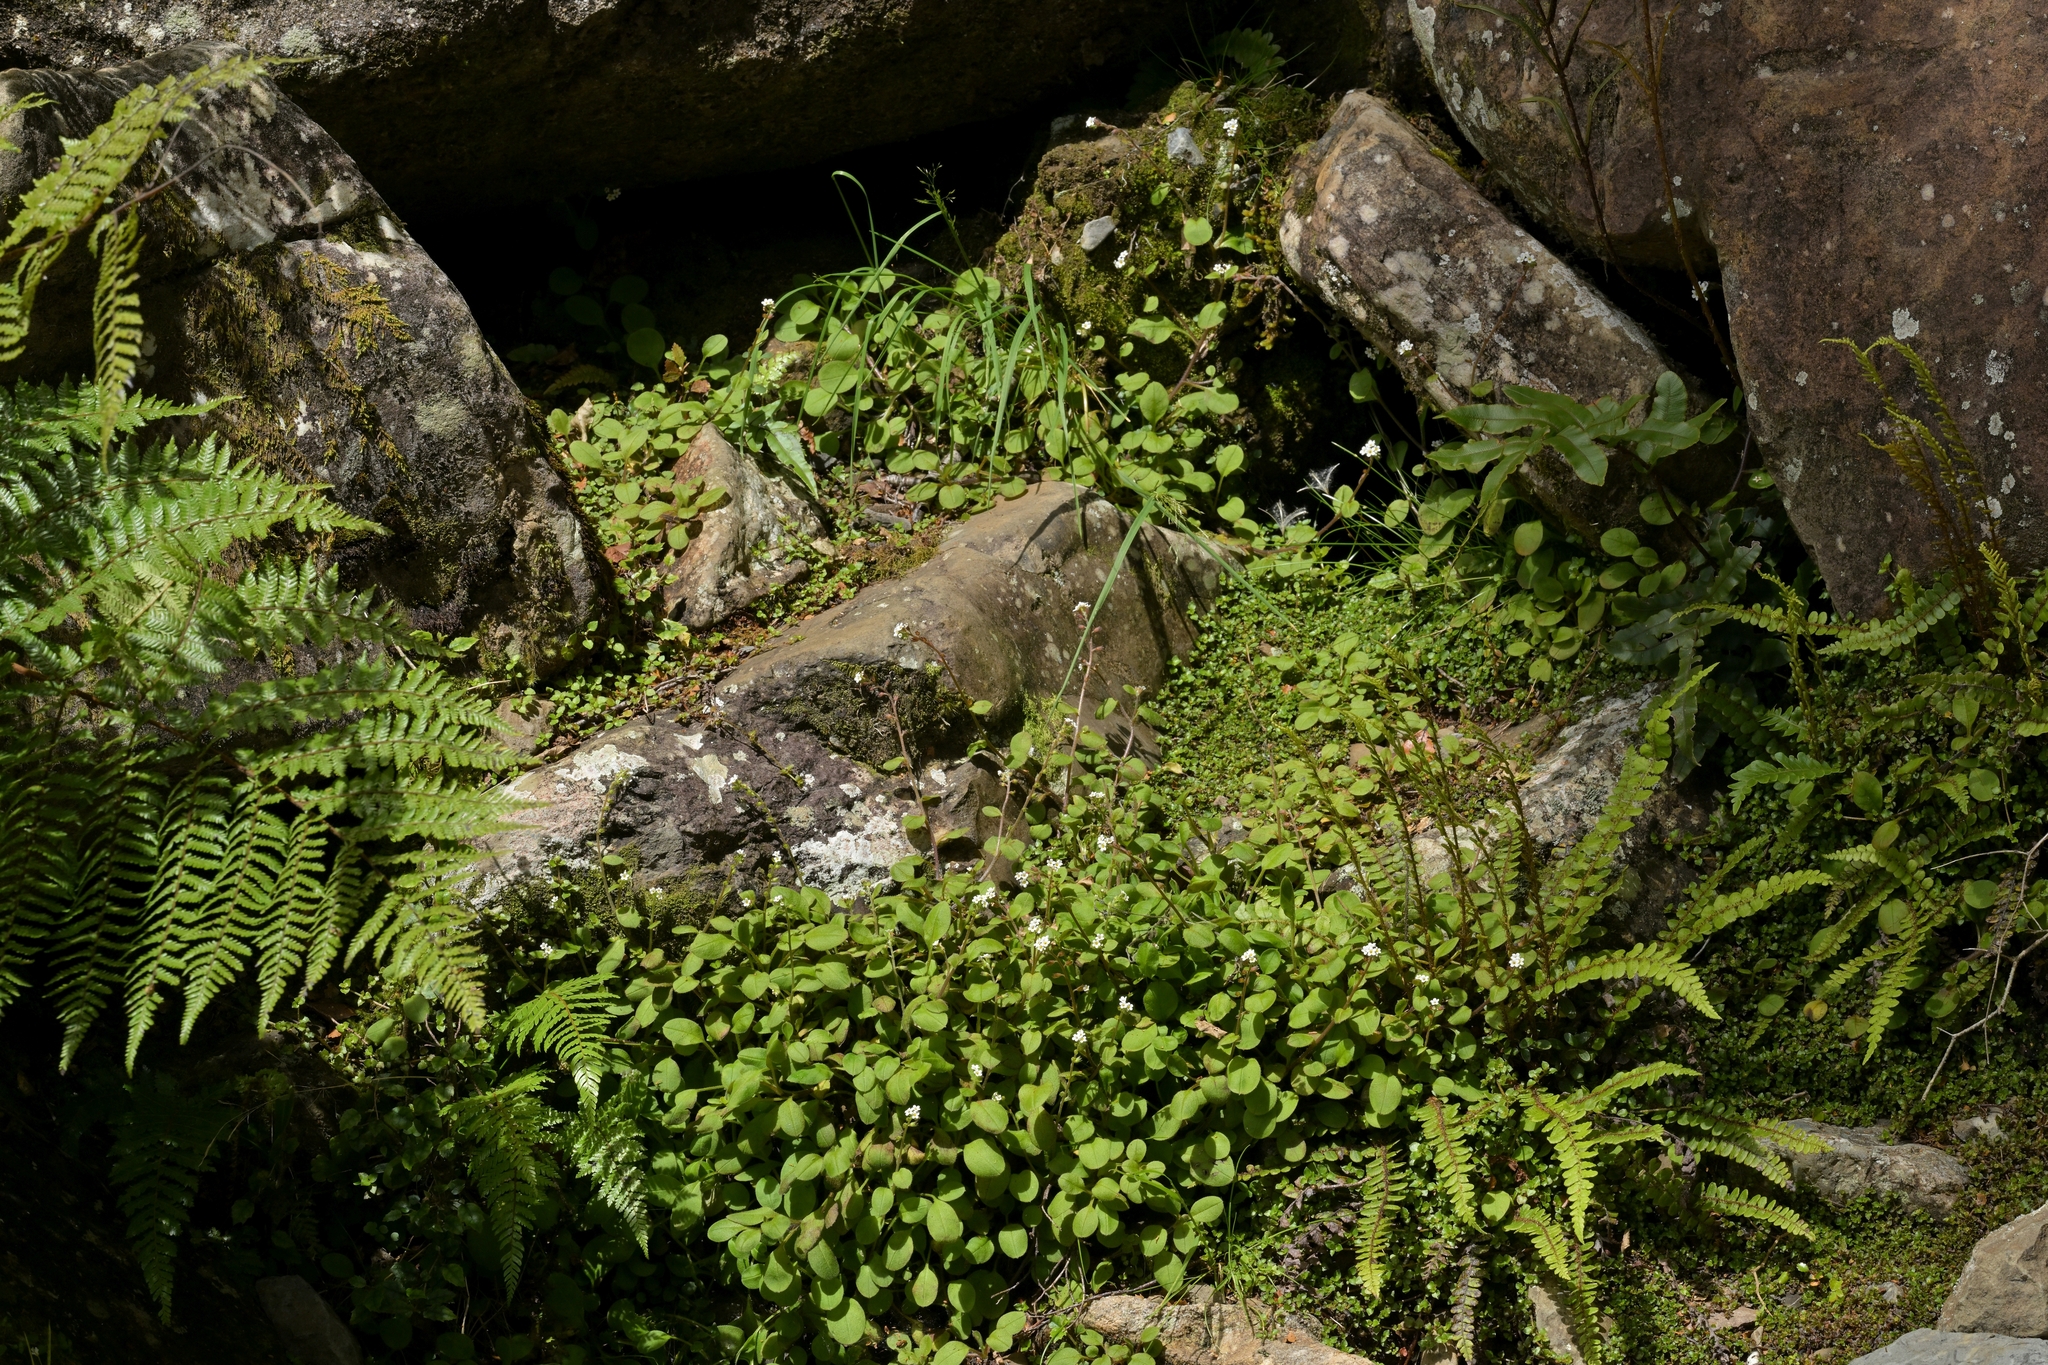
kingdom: Plantae
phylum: Tracheophyta
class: Magnoliopsida
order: Boraginales
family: Boraginaceae
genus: Myosotis
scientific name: Myosotis forsteri
